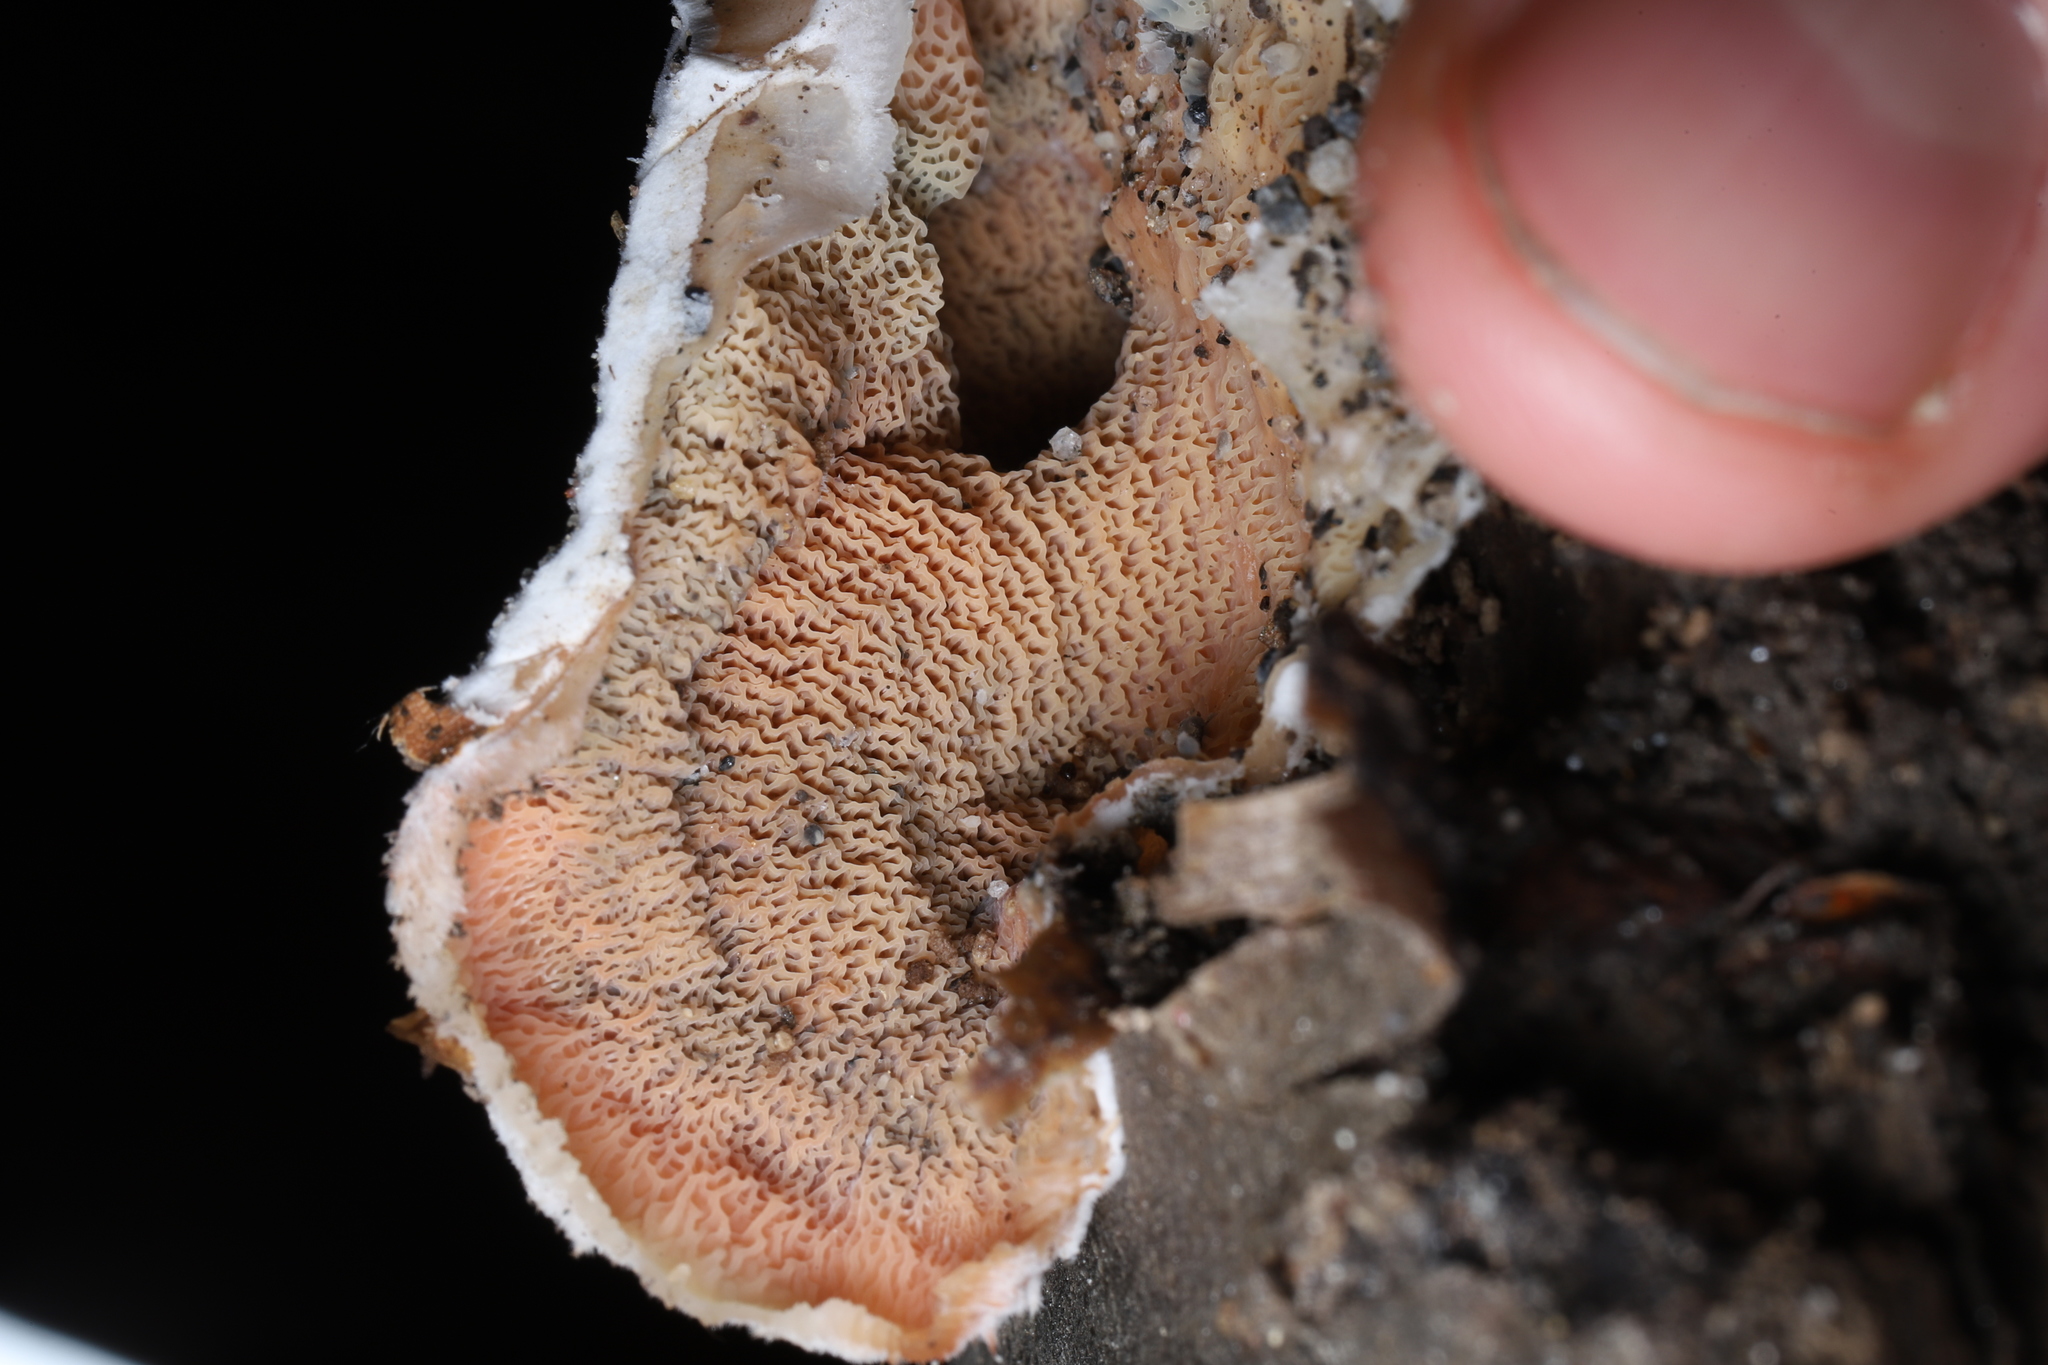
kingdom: Fungi
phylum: Basidiomycota
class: Agaricomycetes
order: Polyporales
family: Meruliaceae
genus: Phlebia
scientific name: Phlebia tremellosa
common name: Jelly rot
